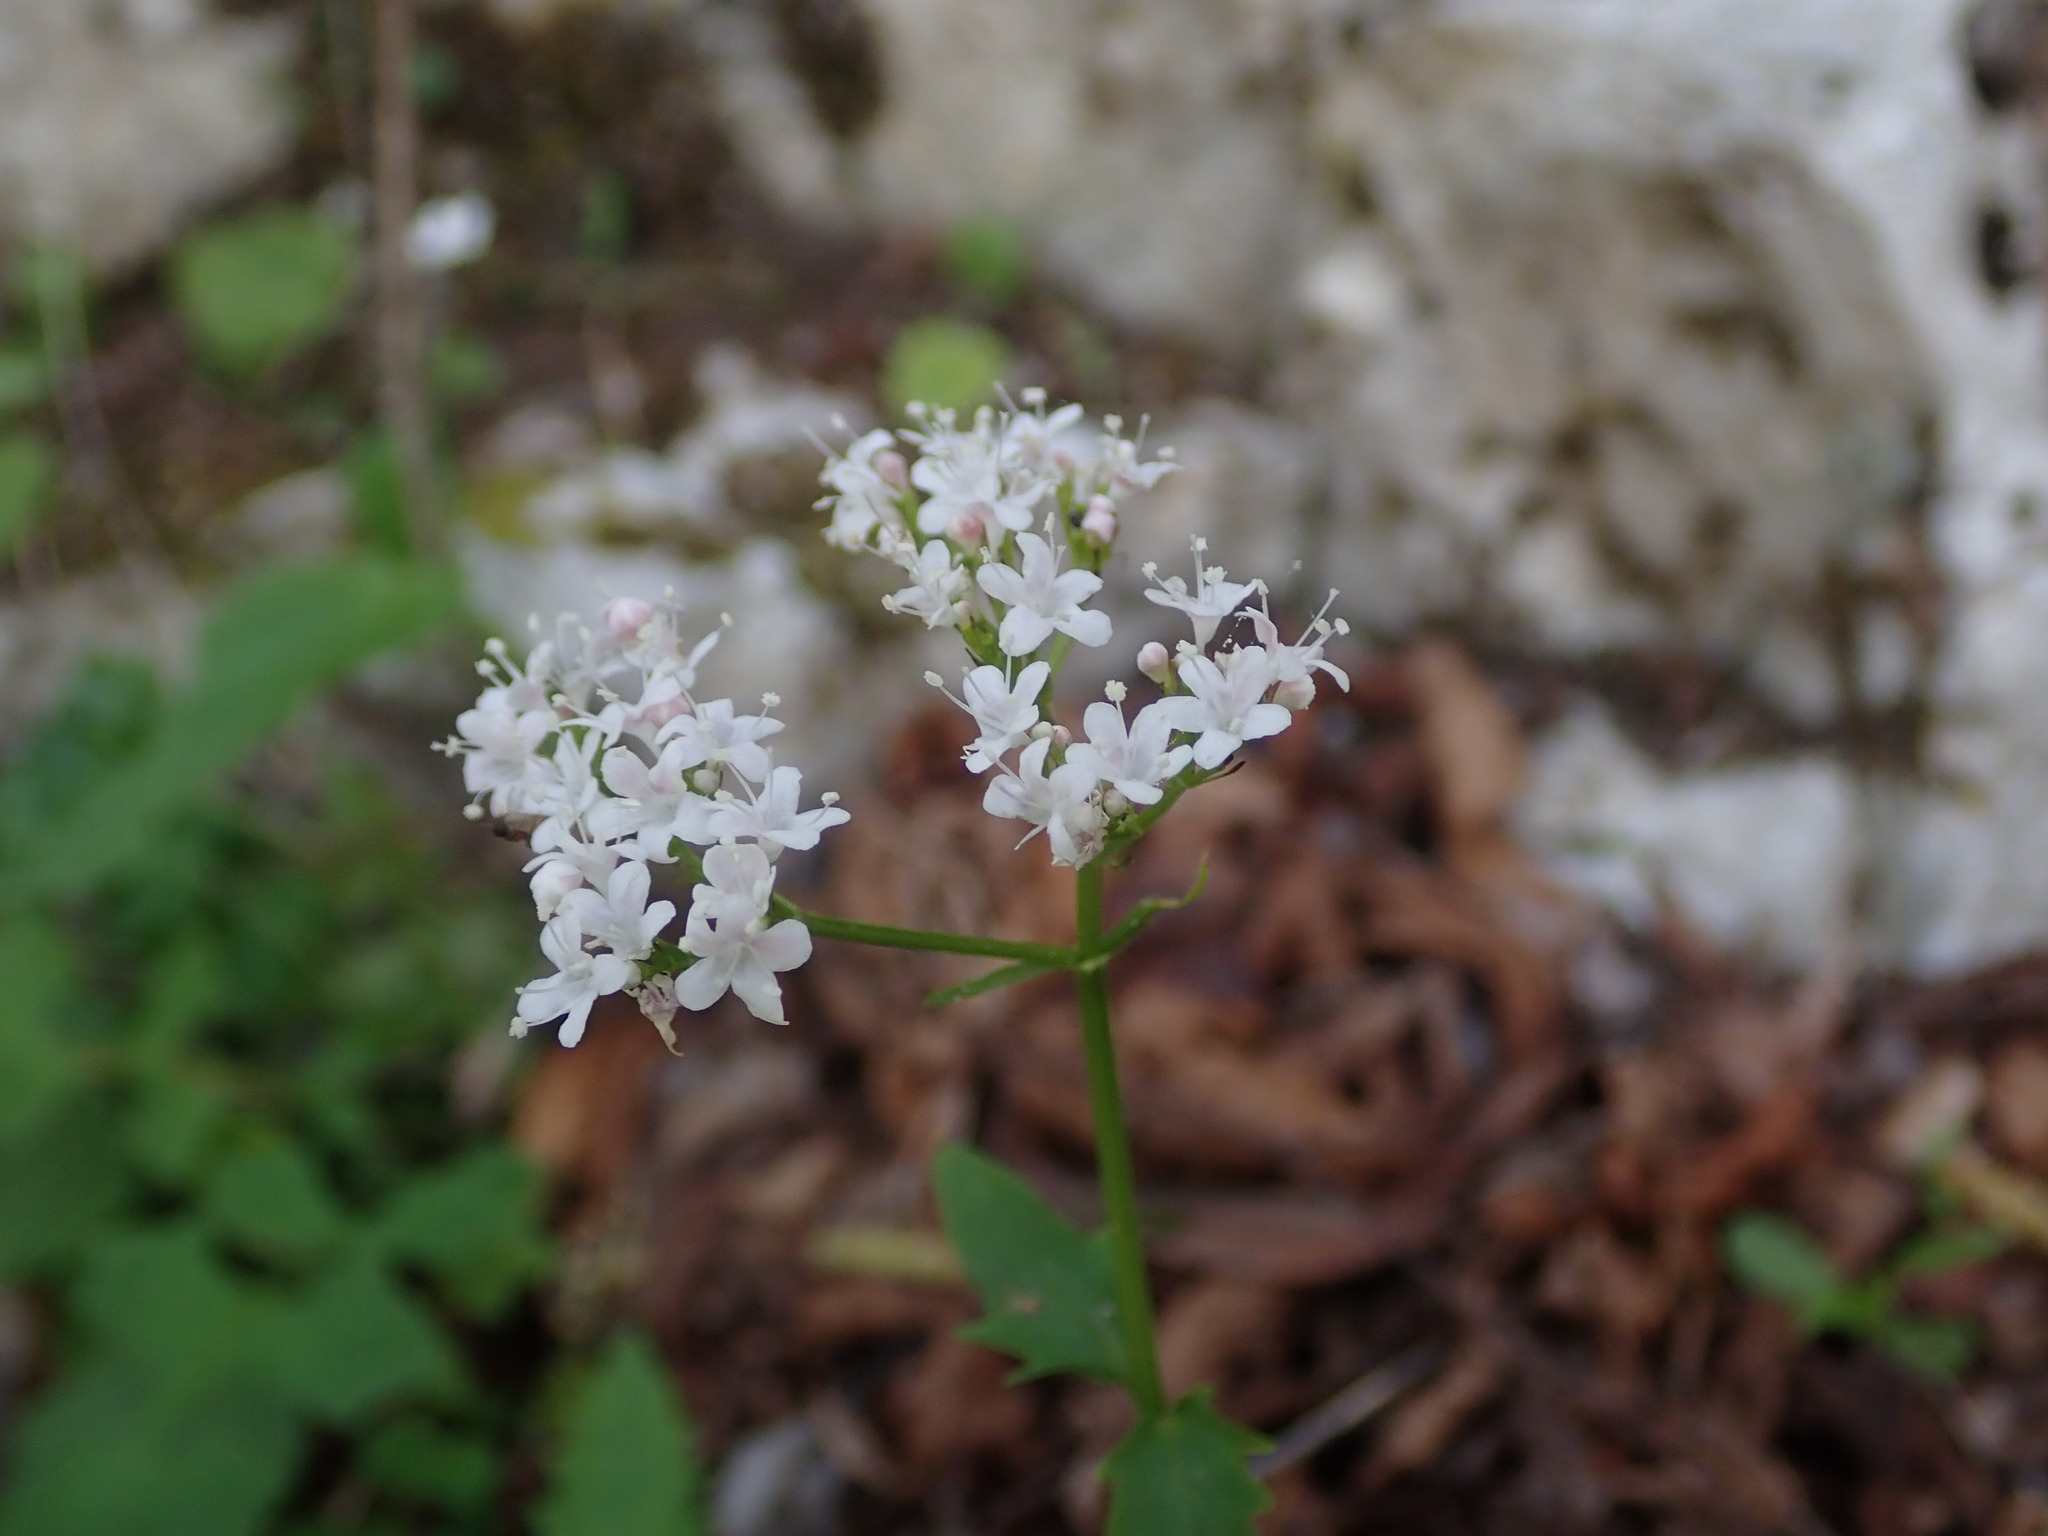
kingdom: Plantae
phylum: Tracheophyta
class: Magnoliopsida
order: Dipsacales
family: Caprifoliaceae
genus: Valeriana
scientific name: Valeriana tripteris
